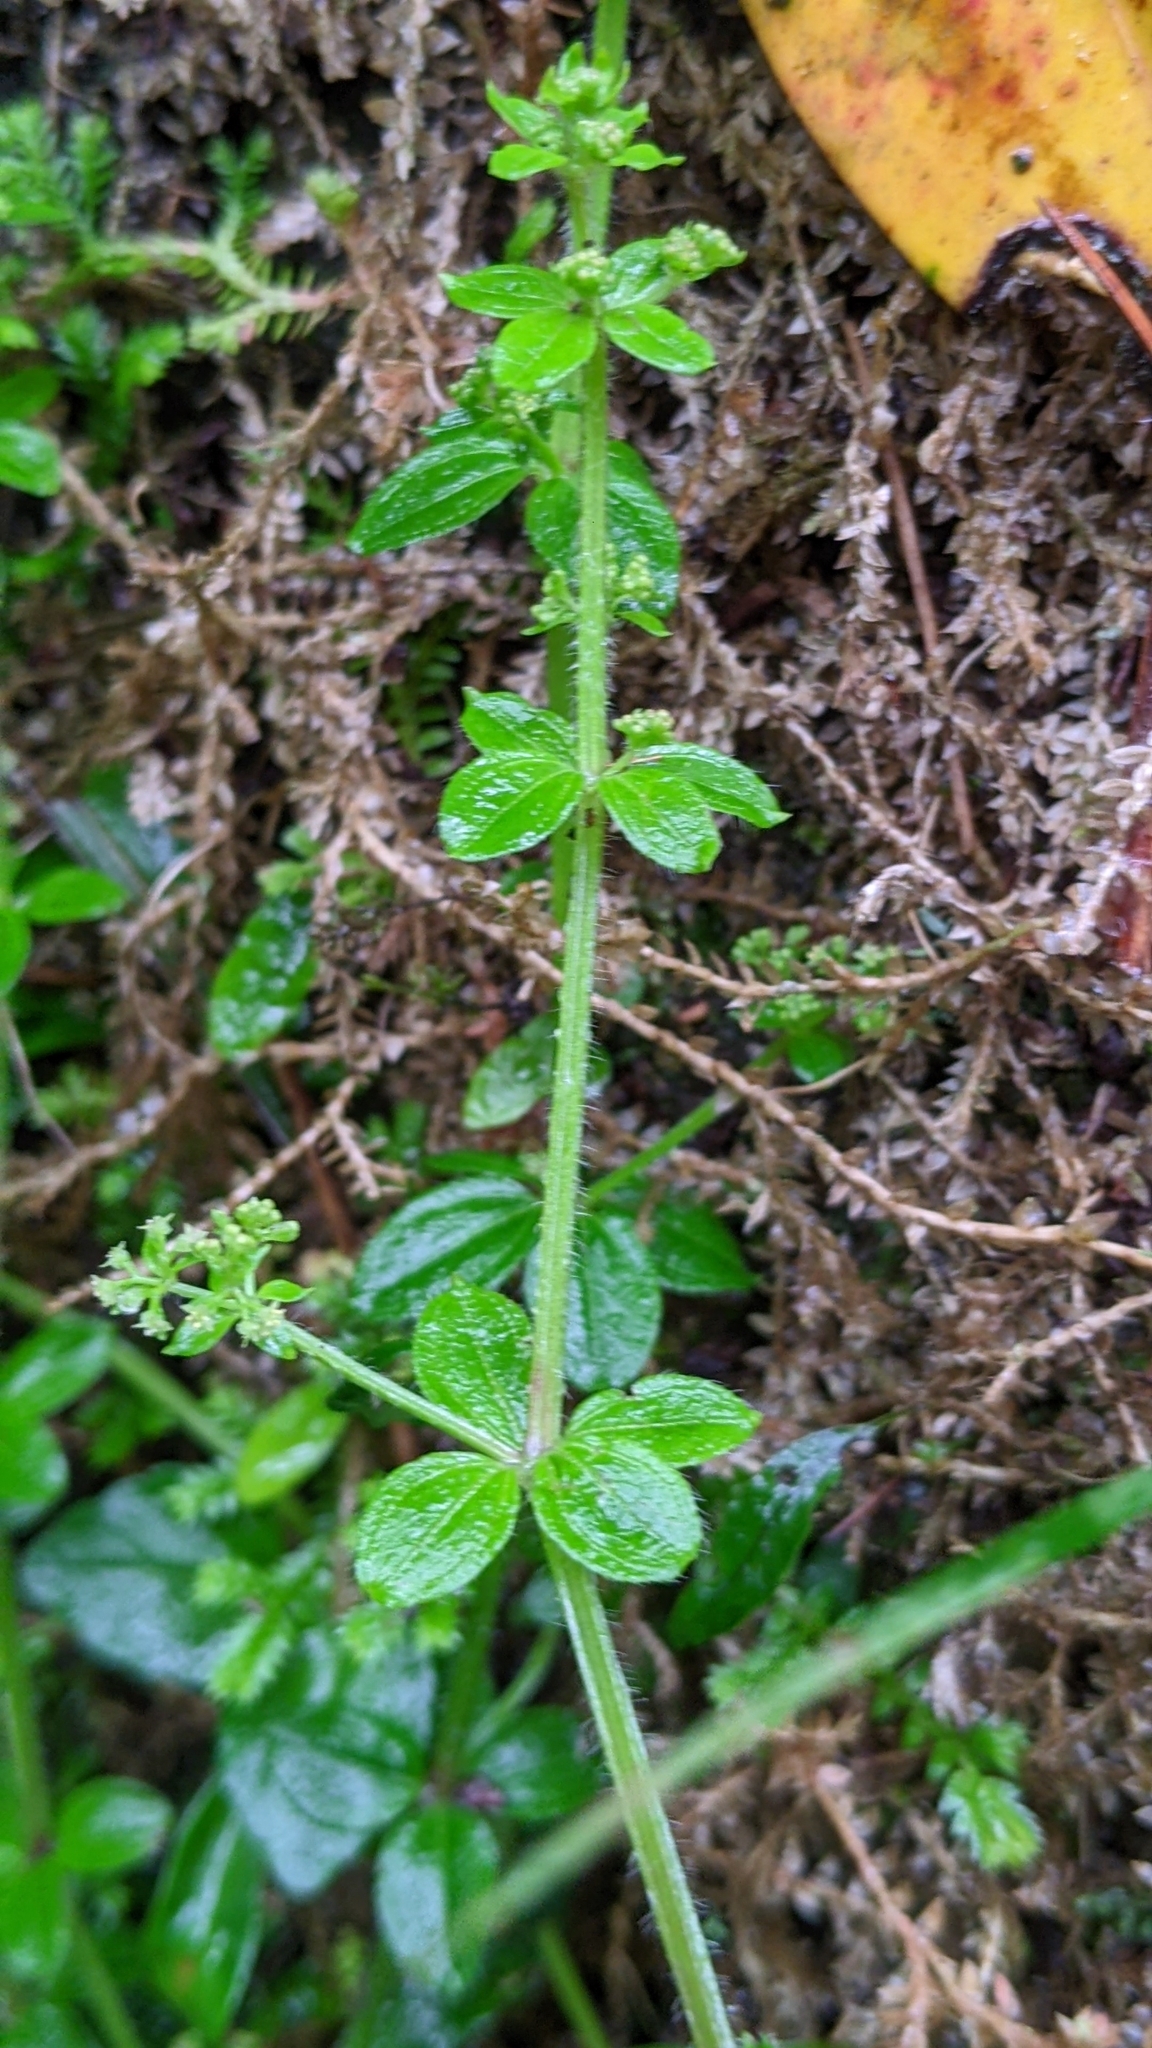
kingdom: Plantae
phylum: Tracheophyta
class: Magnoliopsida
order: Gentianales
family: Rubiaceae
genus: Galium
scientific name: Galium formosense
